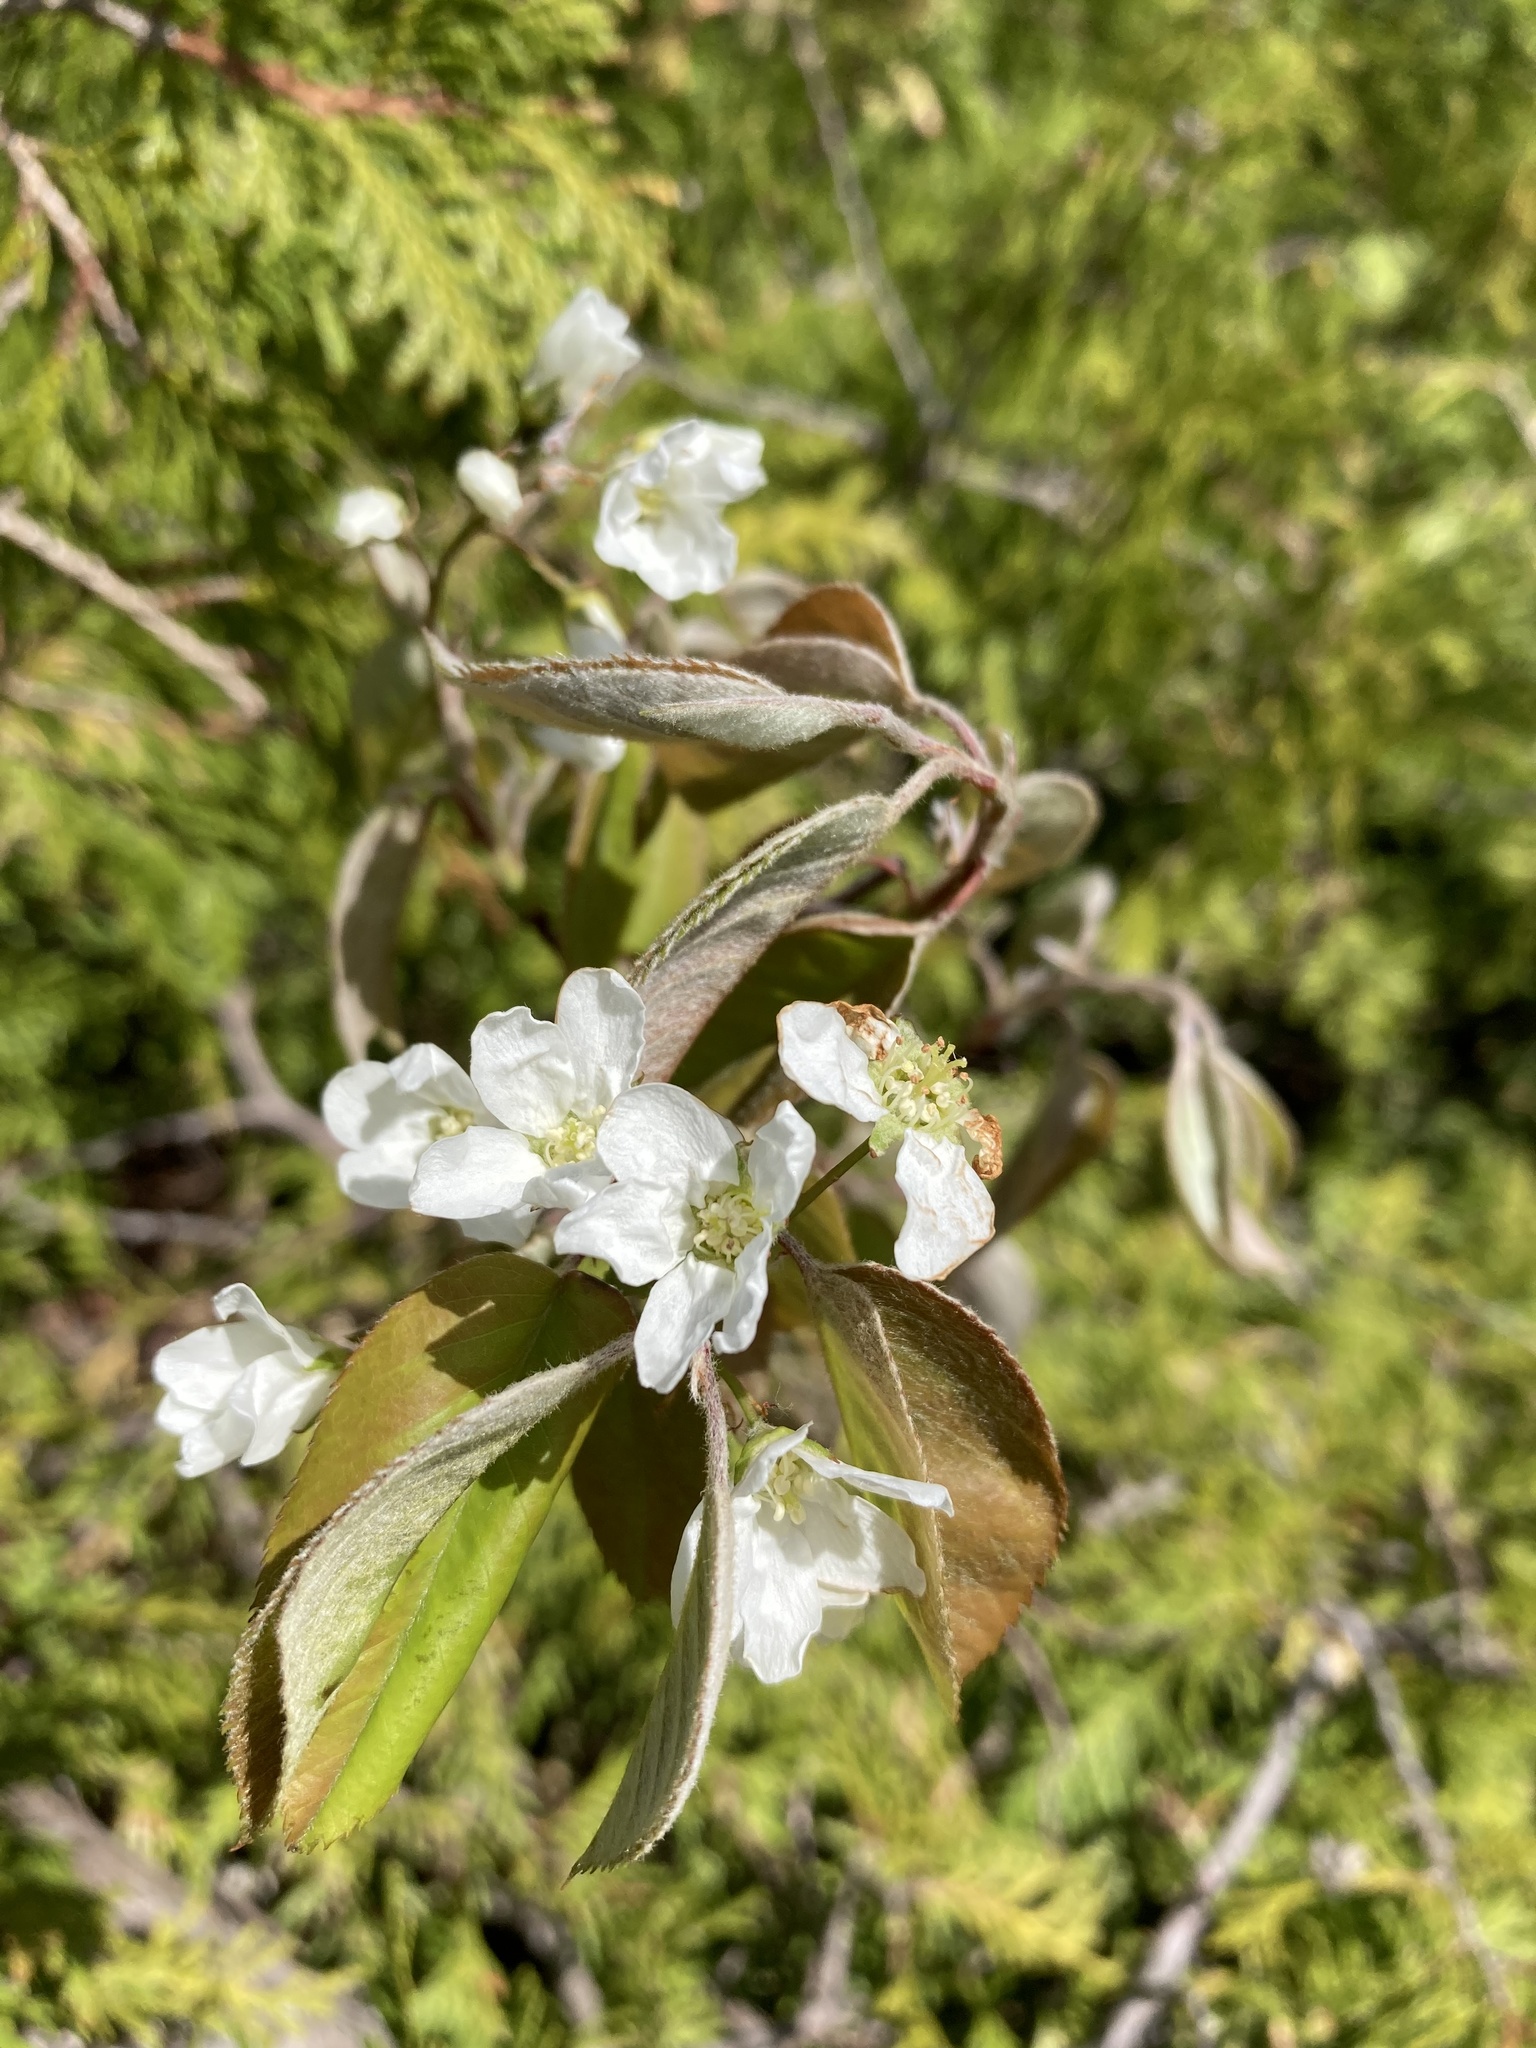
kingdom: Plantae
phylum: Tracheophyta
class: Magnoliopsida
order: Rosales
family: Rosaceae
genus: Amelanchier
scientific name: Amelanchier arborea
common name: Downy serviceberry
